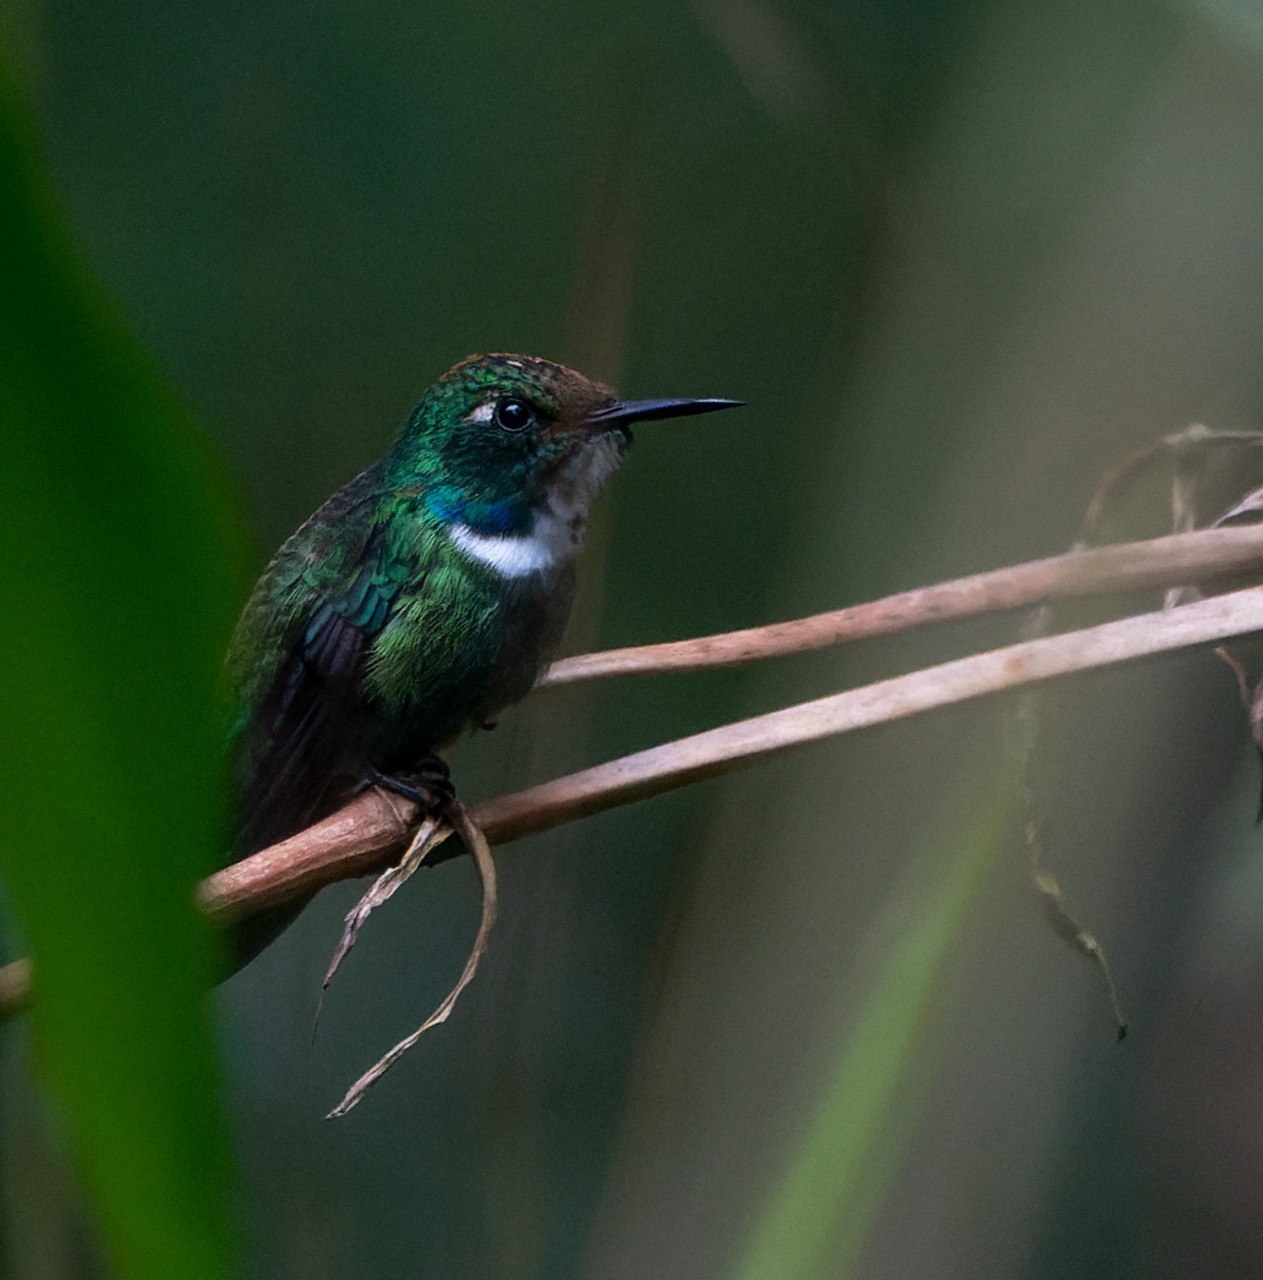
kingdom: Animalia
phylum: Chordata
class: Aves
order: Apodiformes
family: Trochilidae
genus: Schistes
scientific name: Schistes albogularis
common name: White-throated daggerbill
